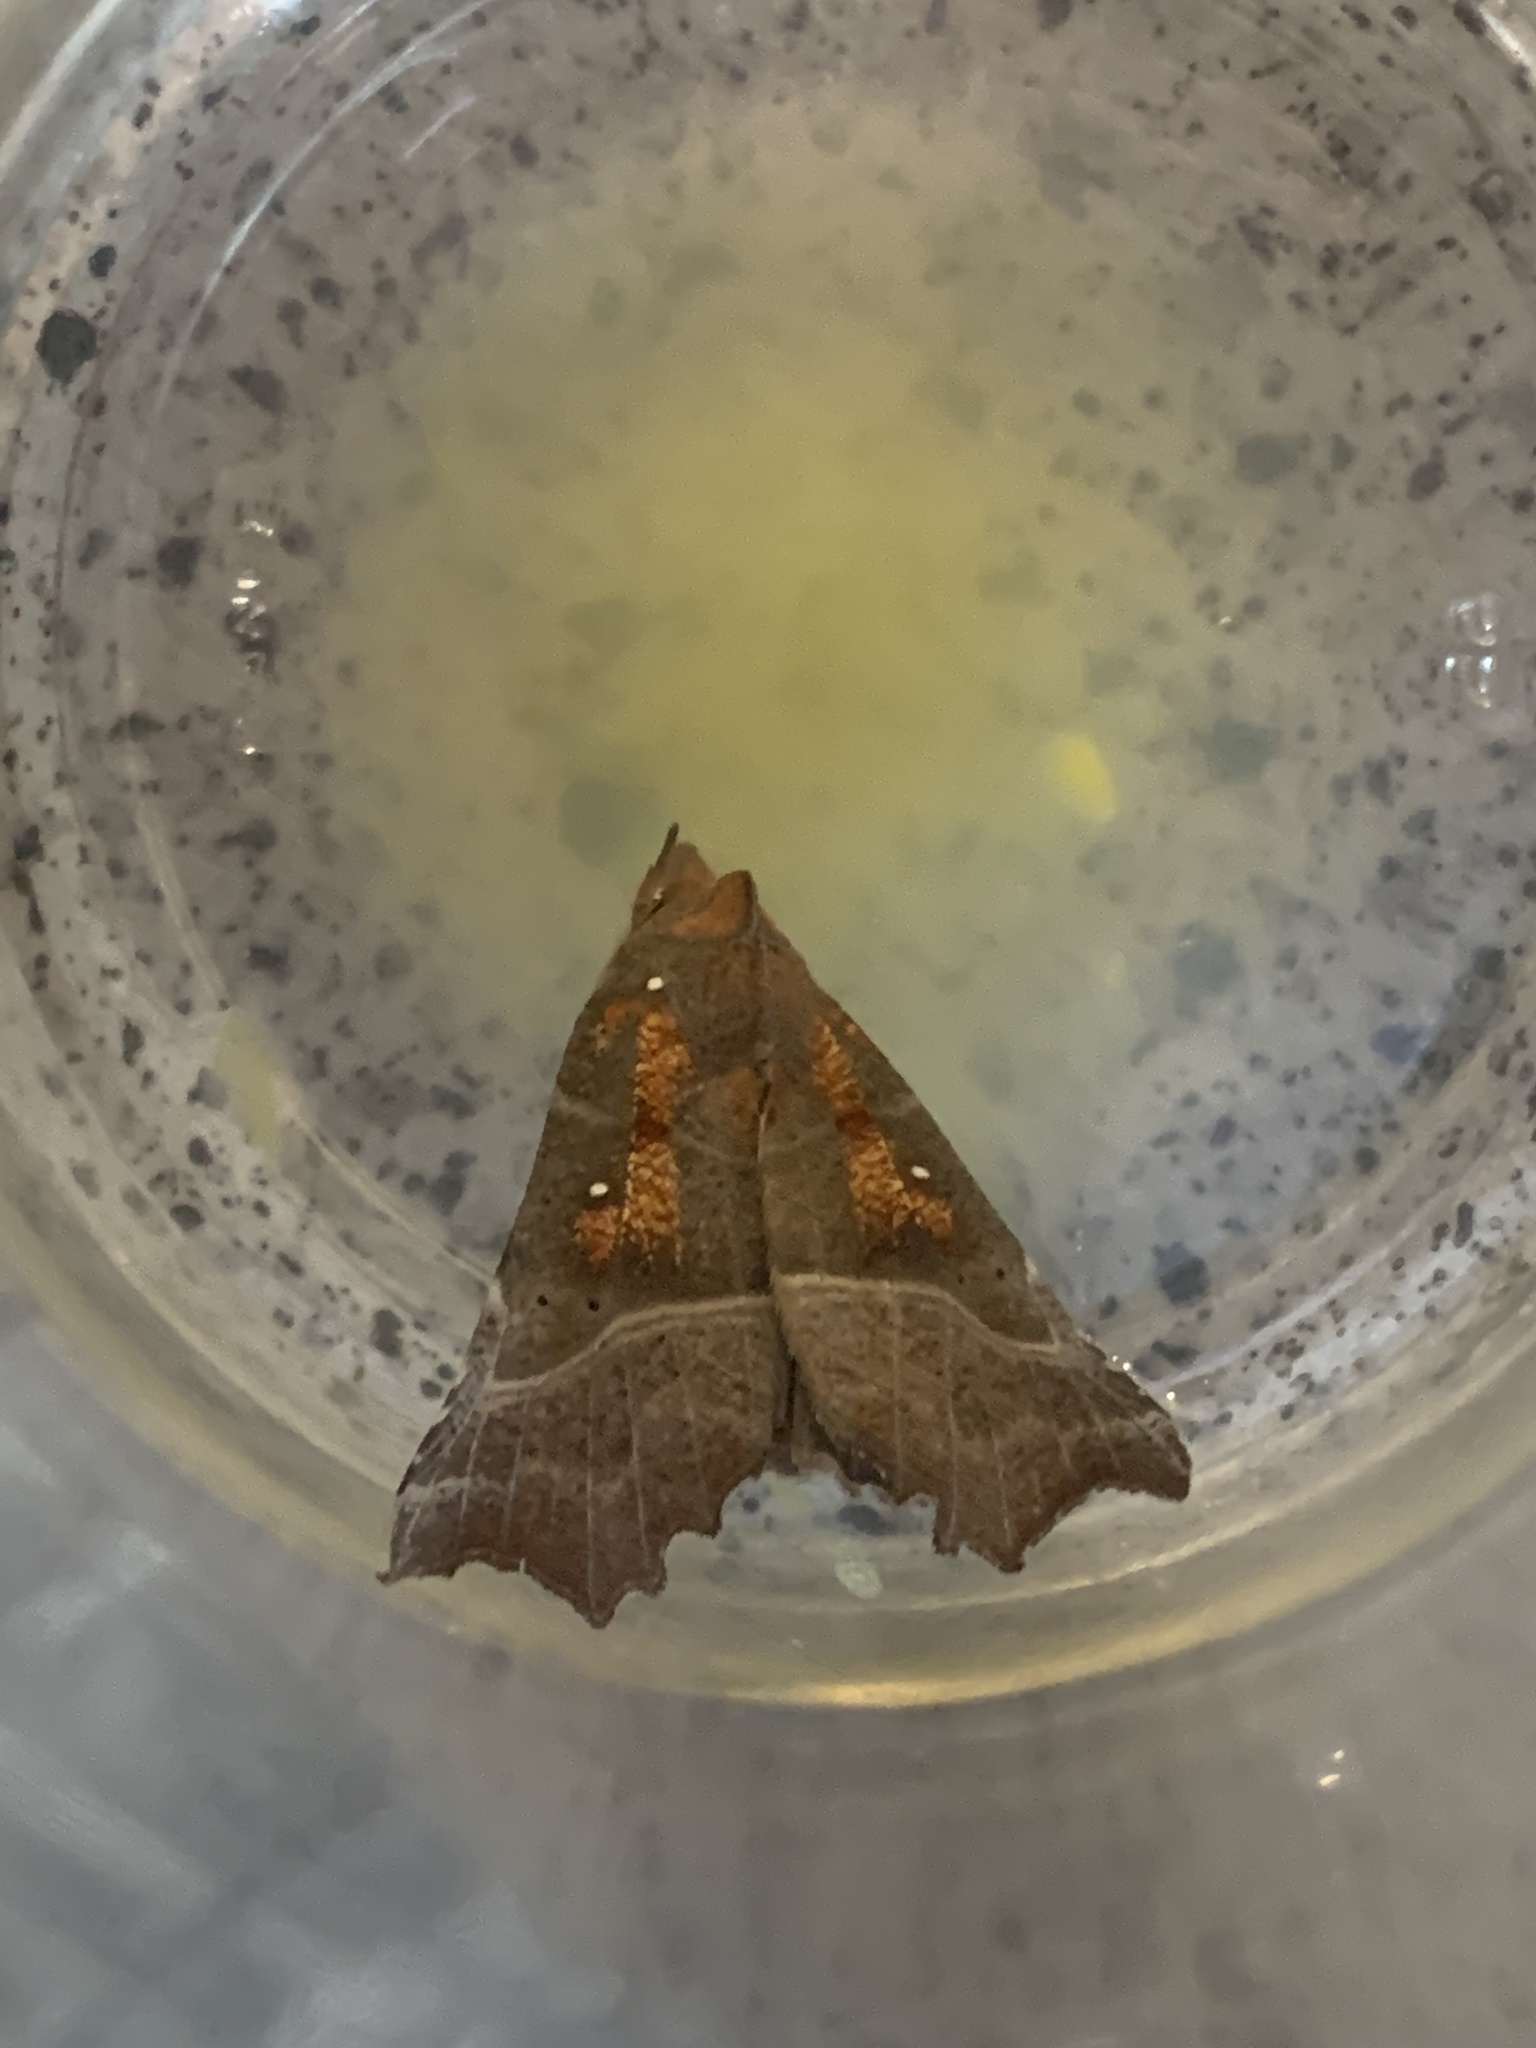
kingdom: Animalia
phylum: Arthropoda
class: Insecta
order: Lepidoptera
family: Erebidae
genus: Scoliopteryx
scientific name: Scoliopteryx libatrix
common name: Herald
